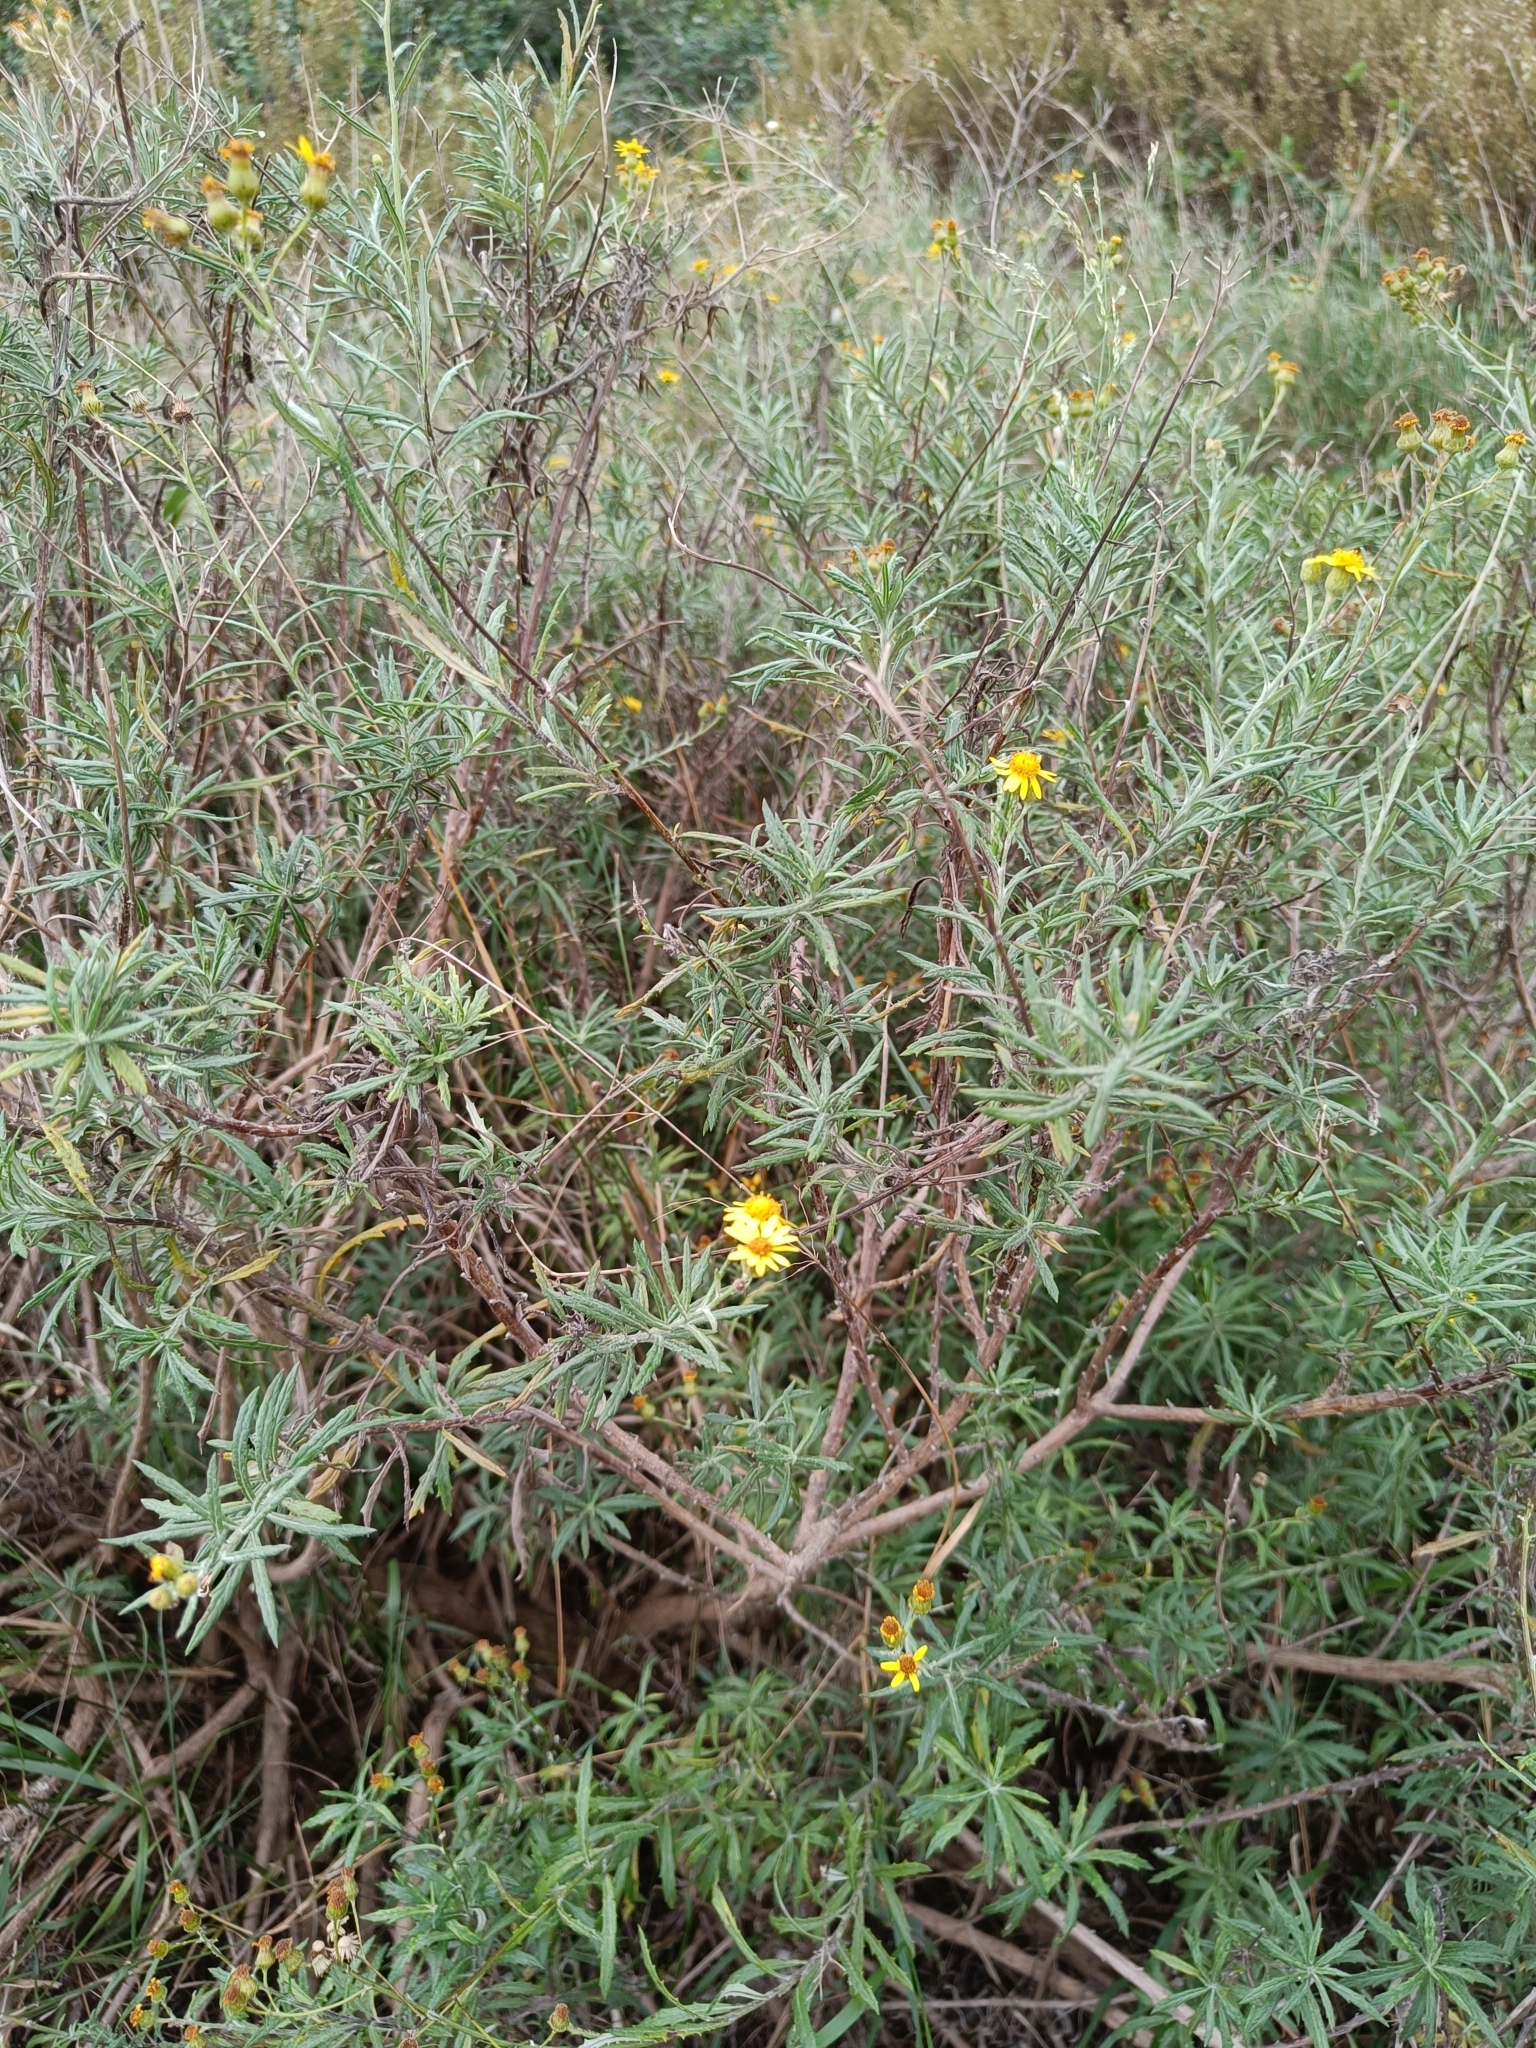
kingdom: Plantae
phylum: Tracheophyta
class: Magnoliopsida
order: Asterales
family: Asteraceae
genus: Senecio
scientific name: Senecio pterophorus
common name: Shoddy ragwort
